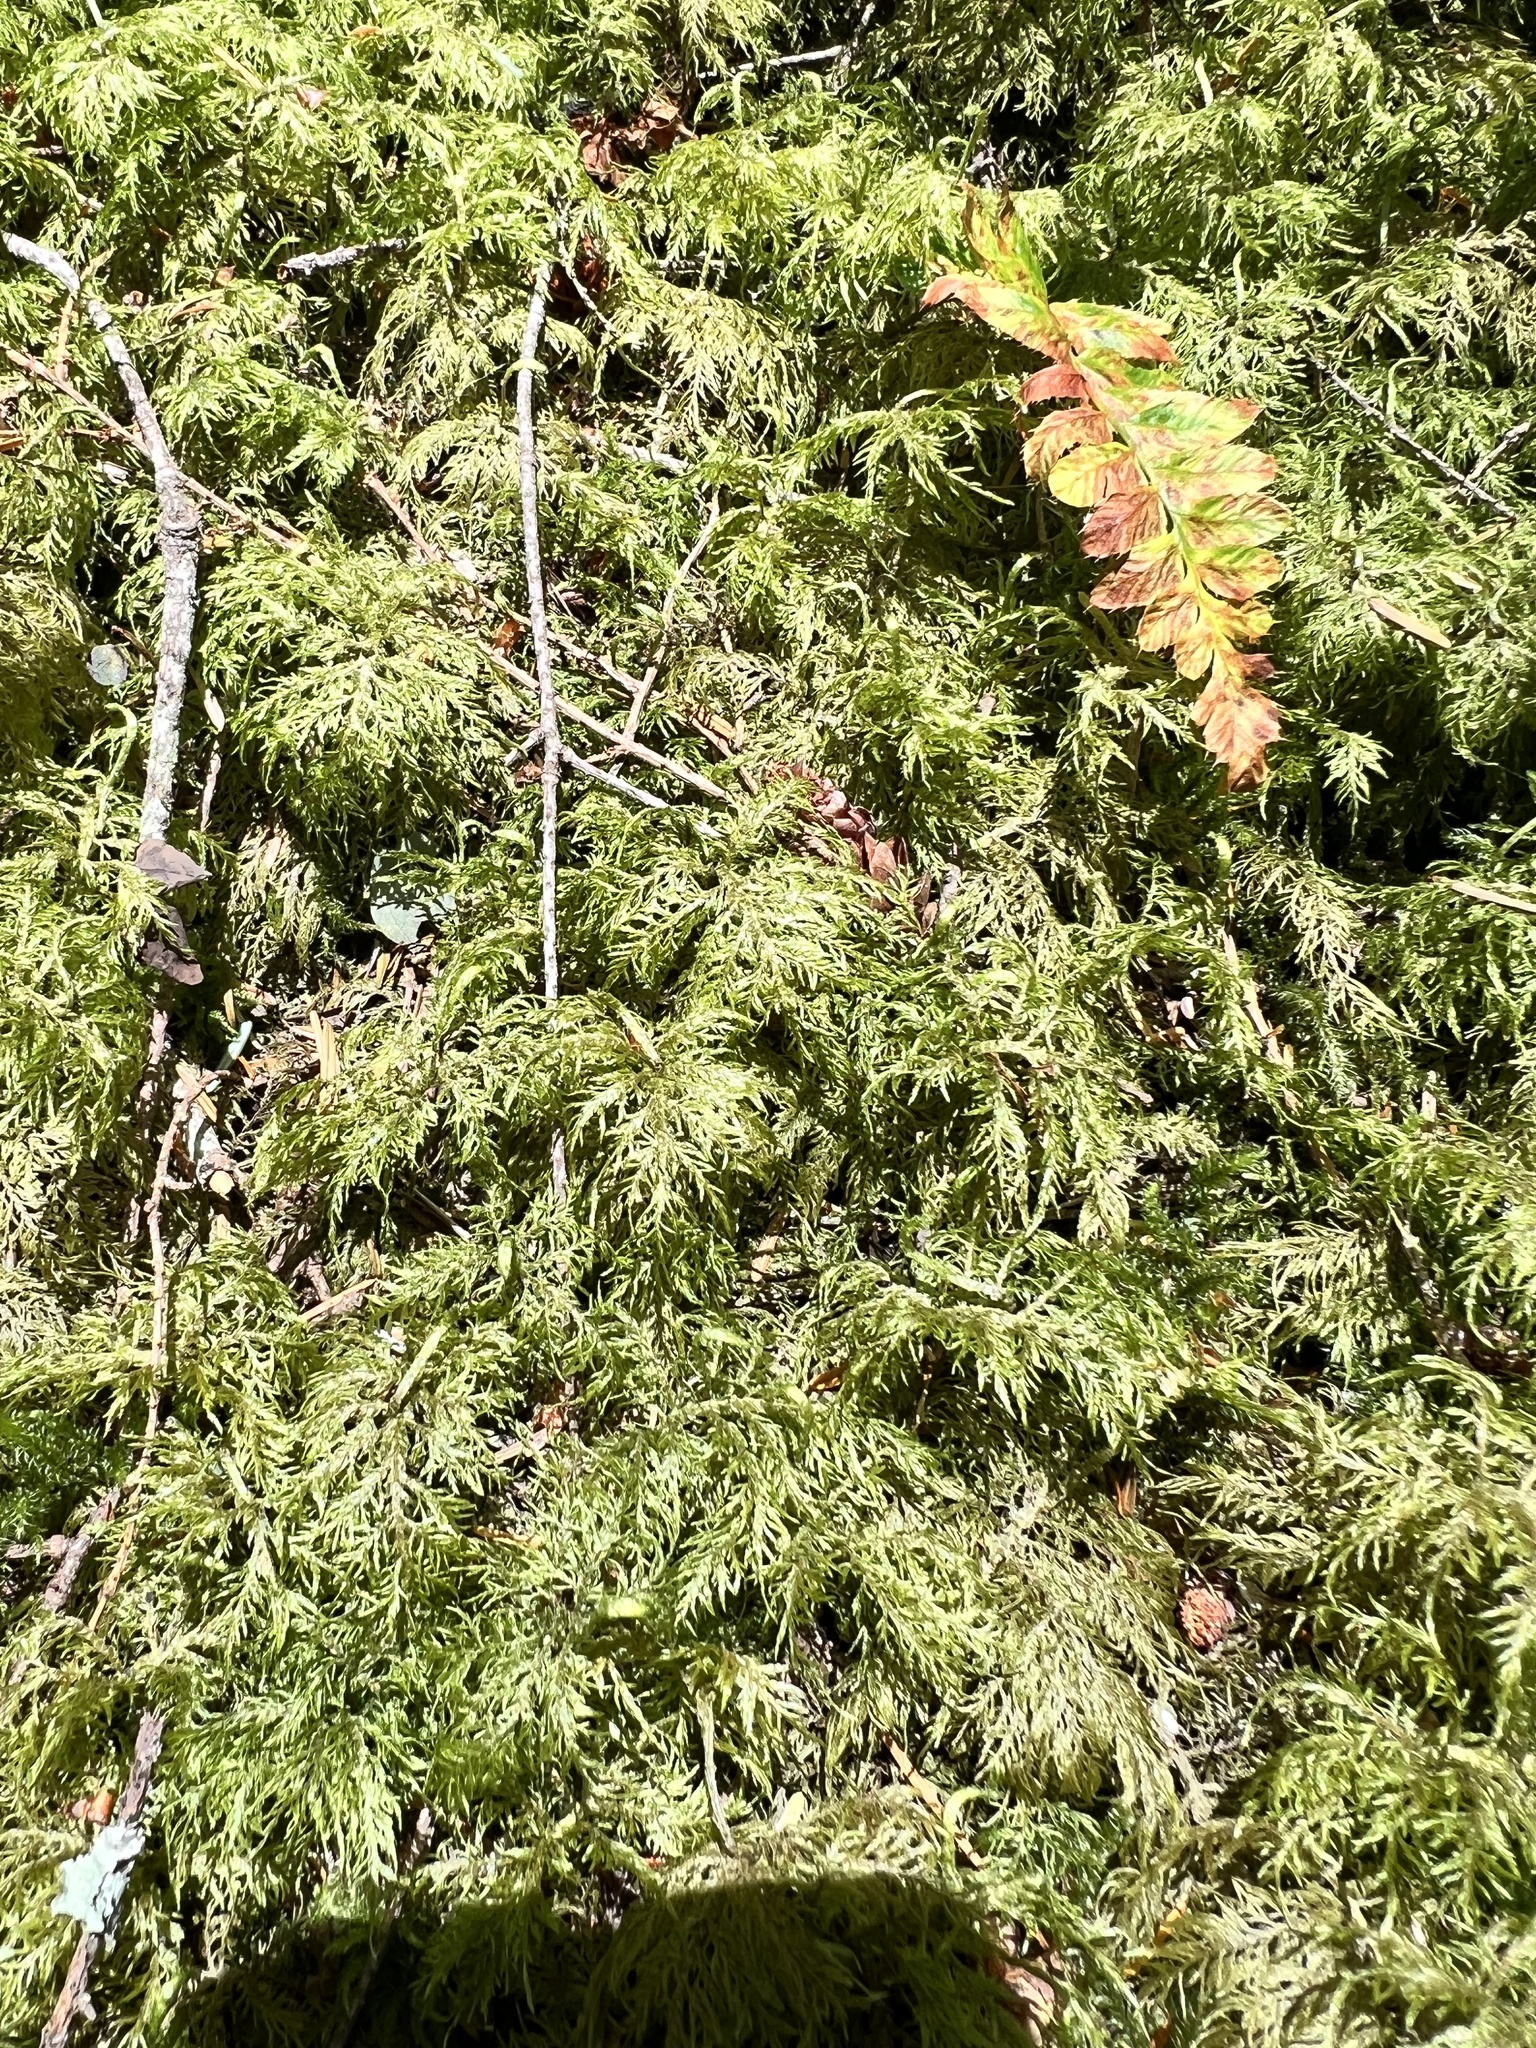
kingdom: Plantae
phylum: Bryophyta
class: Bryopsida
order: Hypnales
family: Hylocomiaceae
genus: Hylocomium
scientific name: Hylocomium splendens
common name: Stairstep moss
